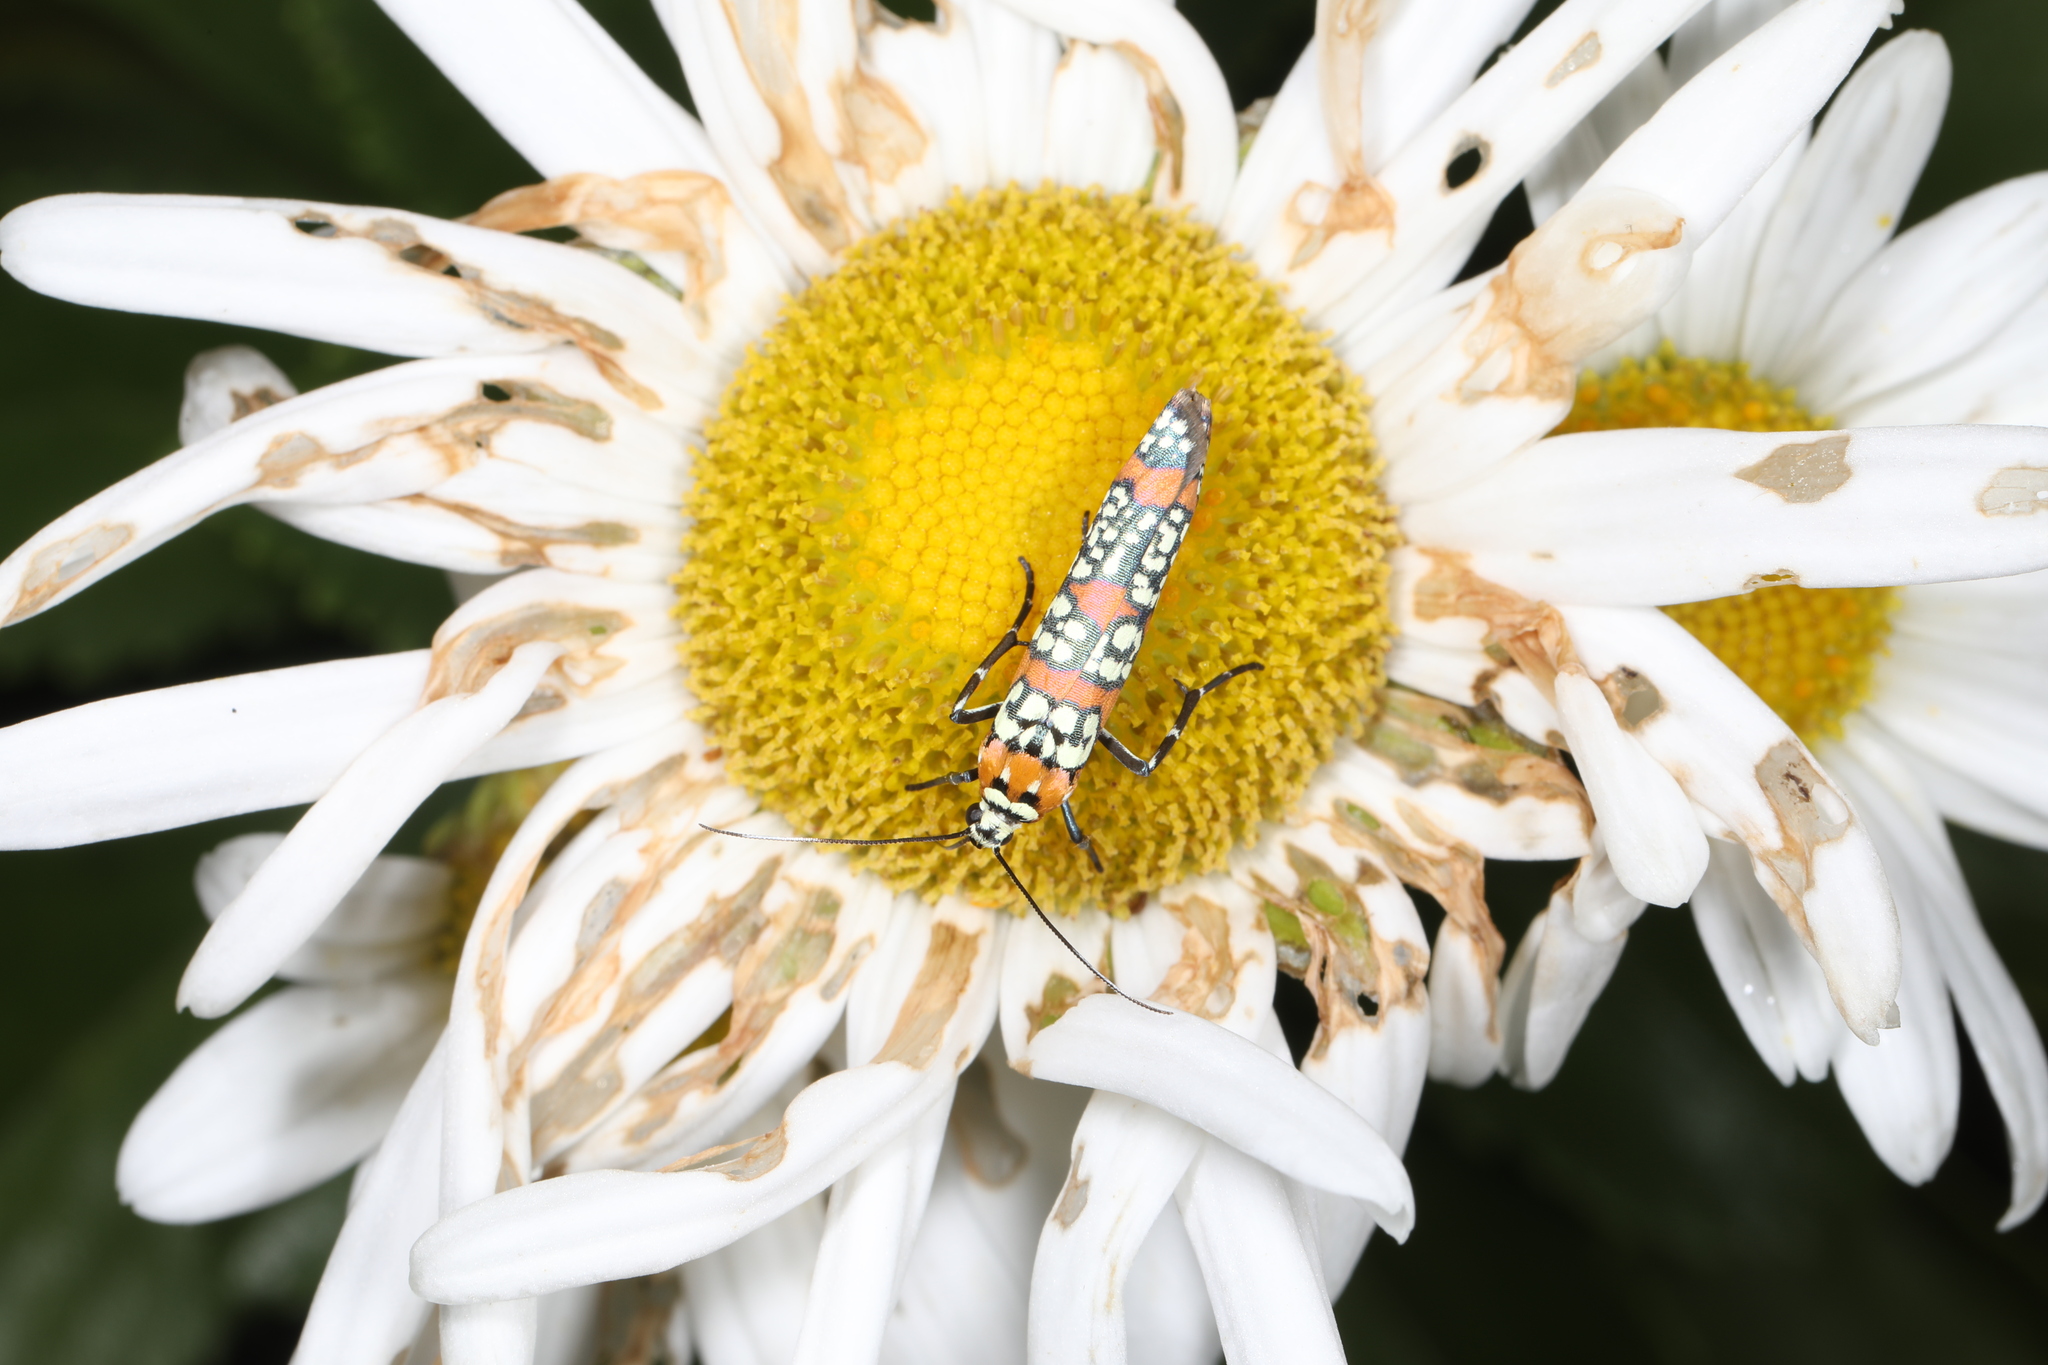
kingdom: Animalia
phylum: Arthropoda
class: Insecta
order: Lepidoptera
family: Attevidae
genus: Atteva
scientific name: Atteva punctella
